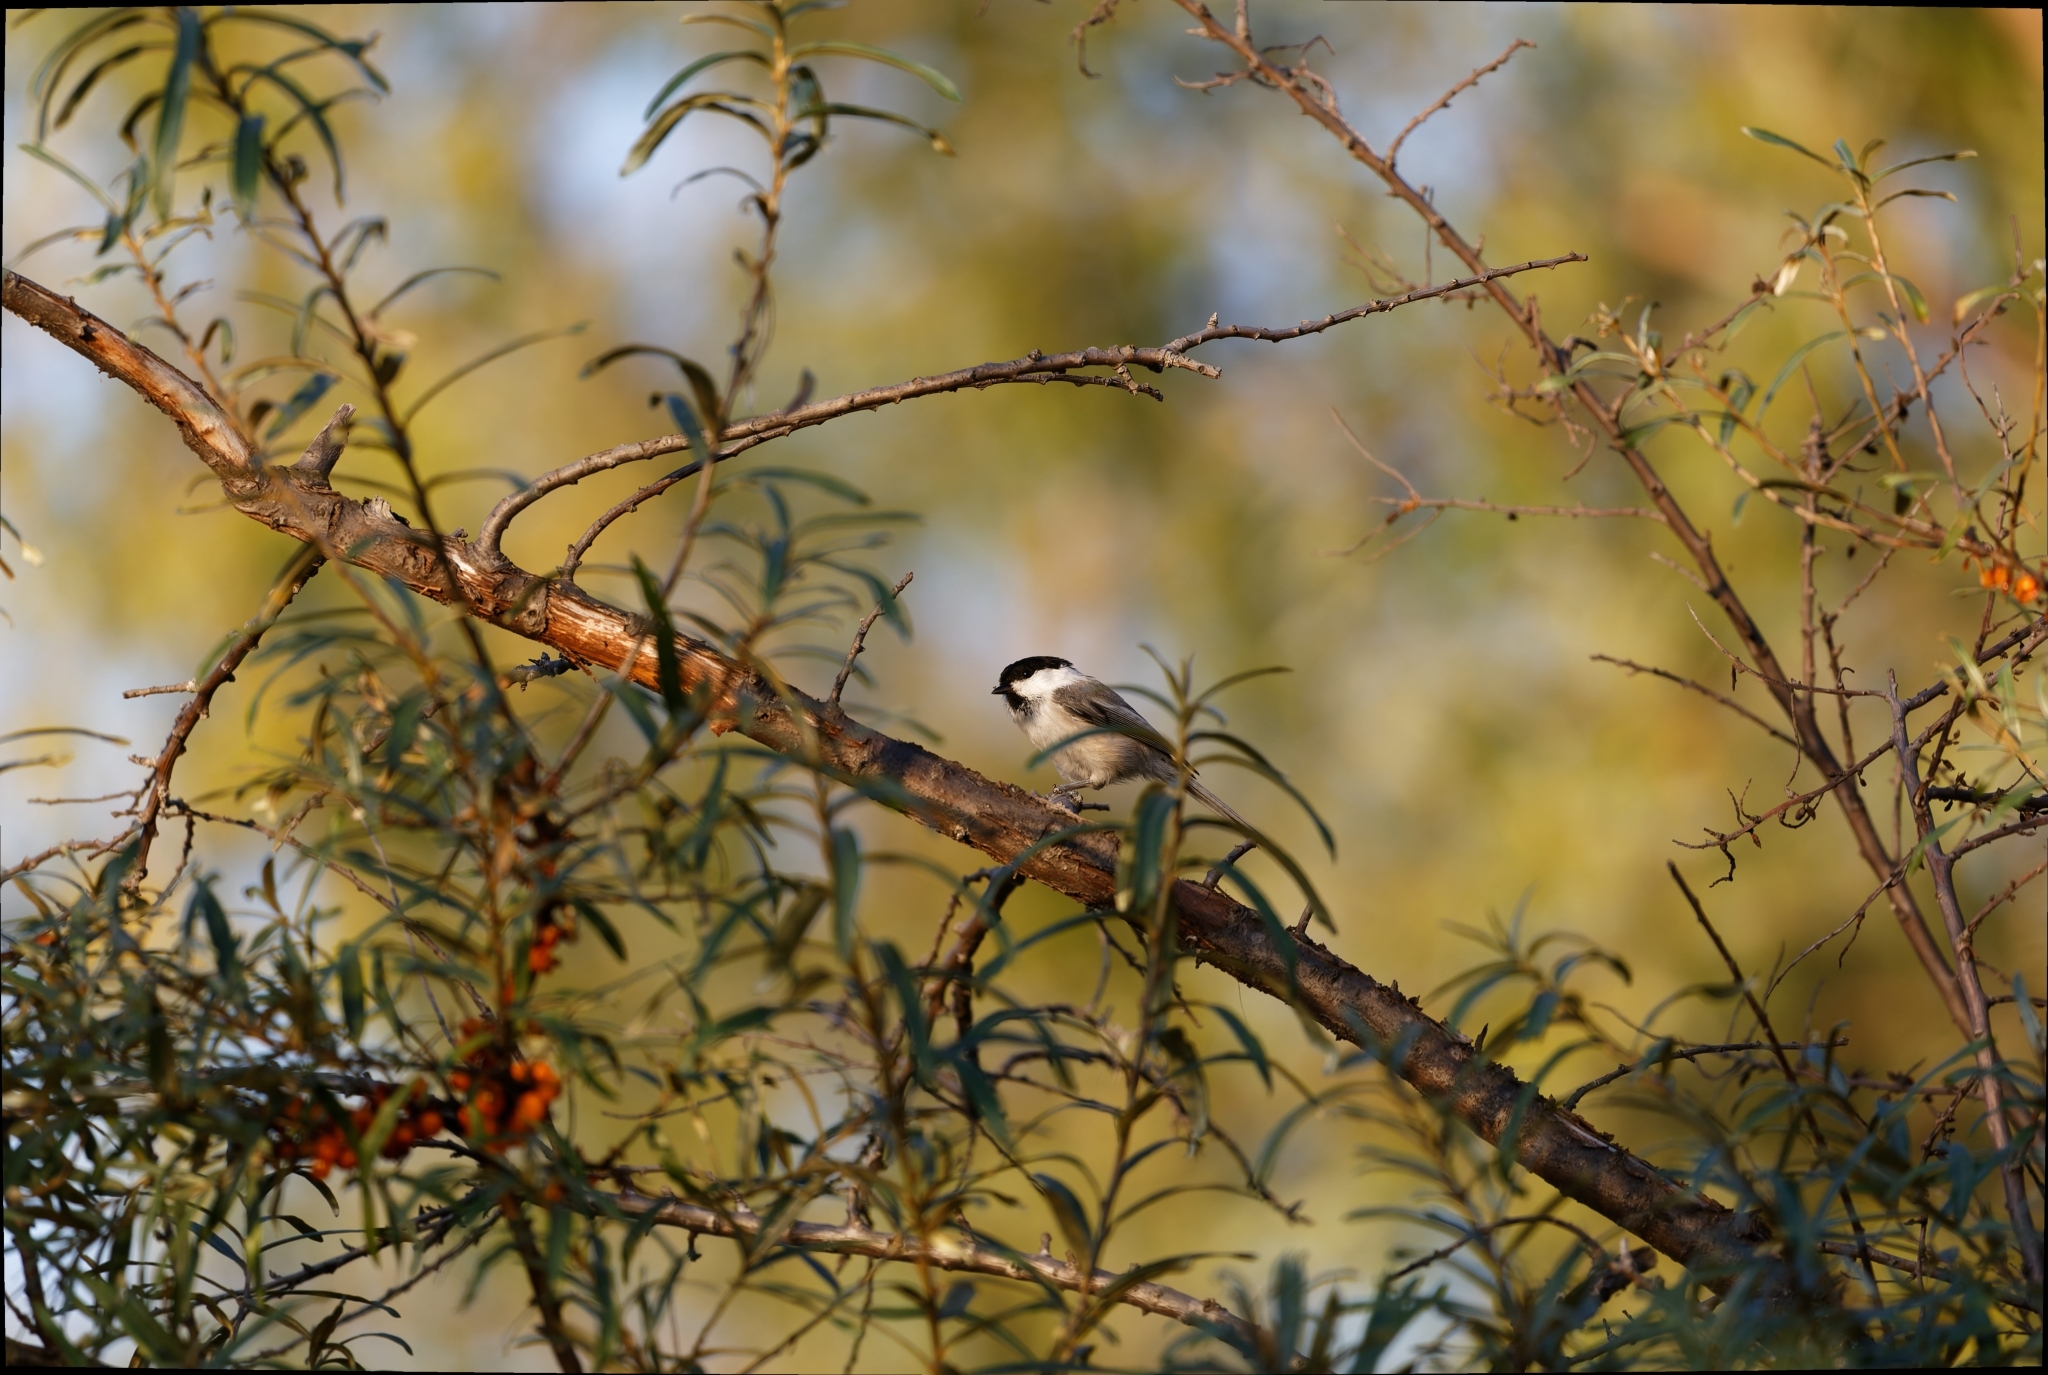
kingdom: Animalia
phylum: Chordata
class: Aves
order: Passeriformes
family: Paridae
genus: Poecile
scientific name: Poecile montanus
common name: Willow tit
